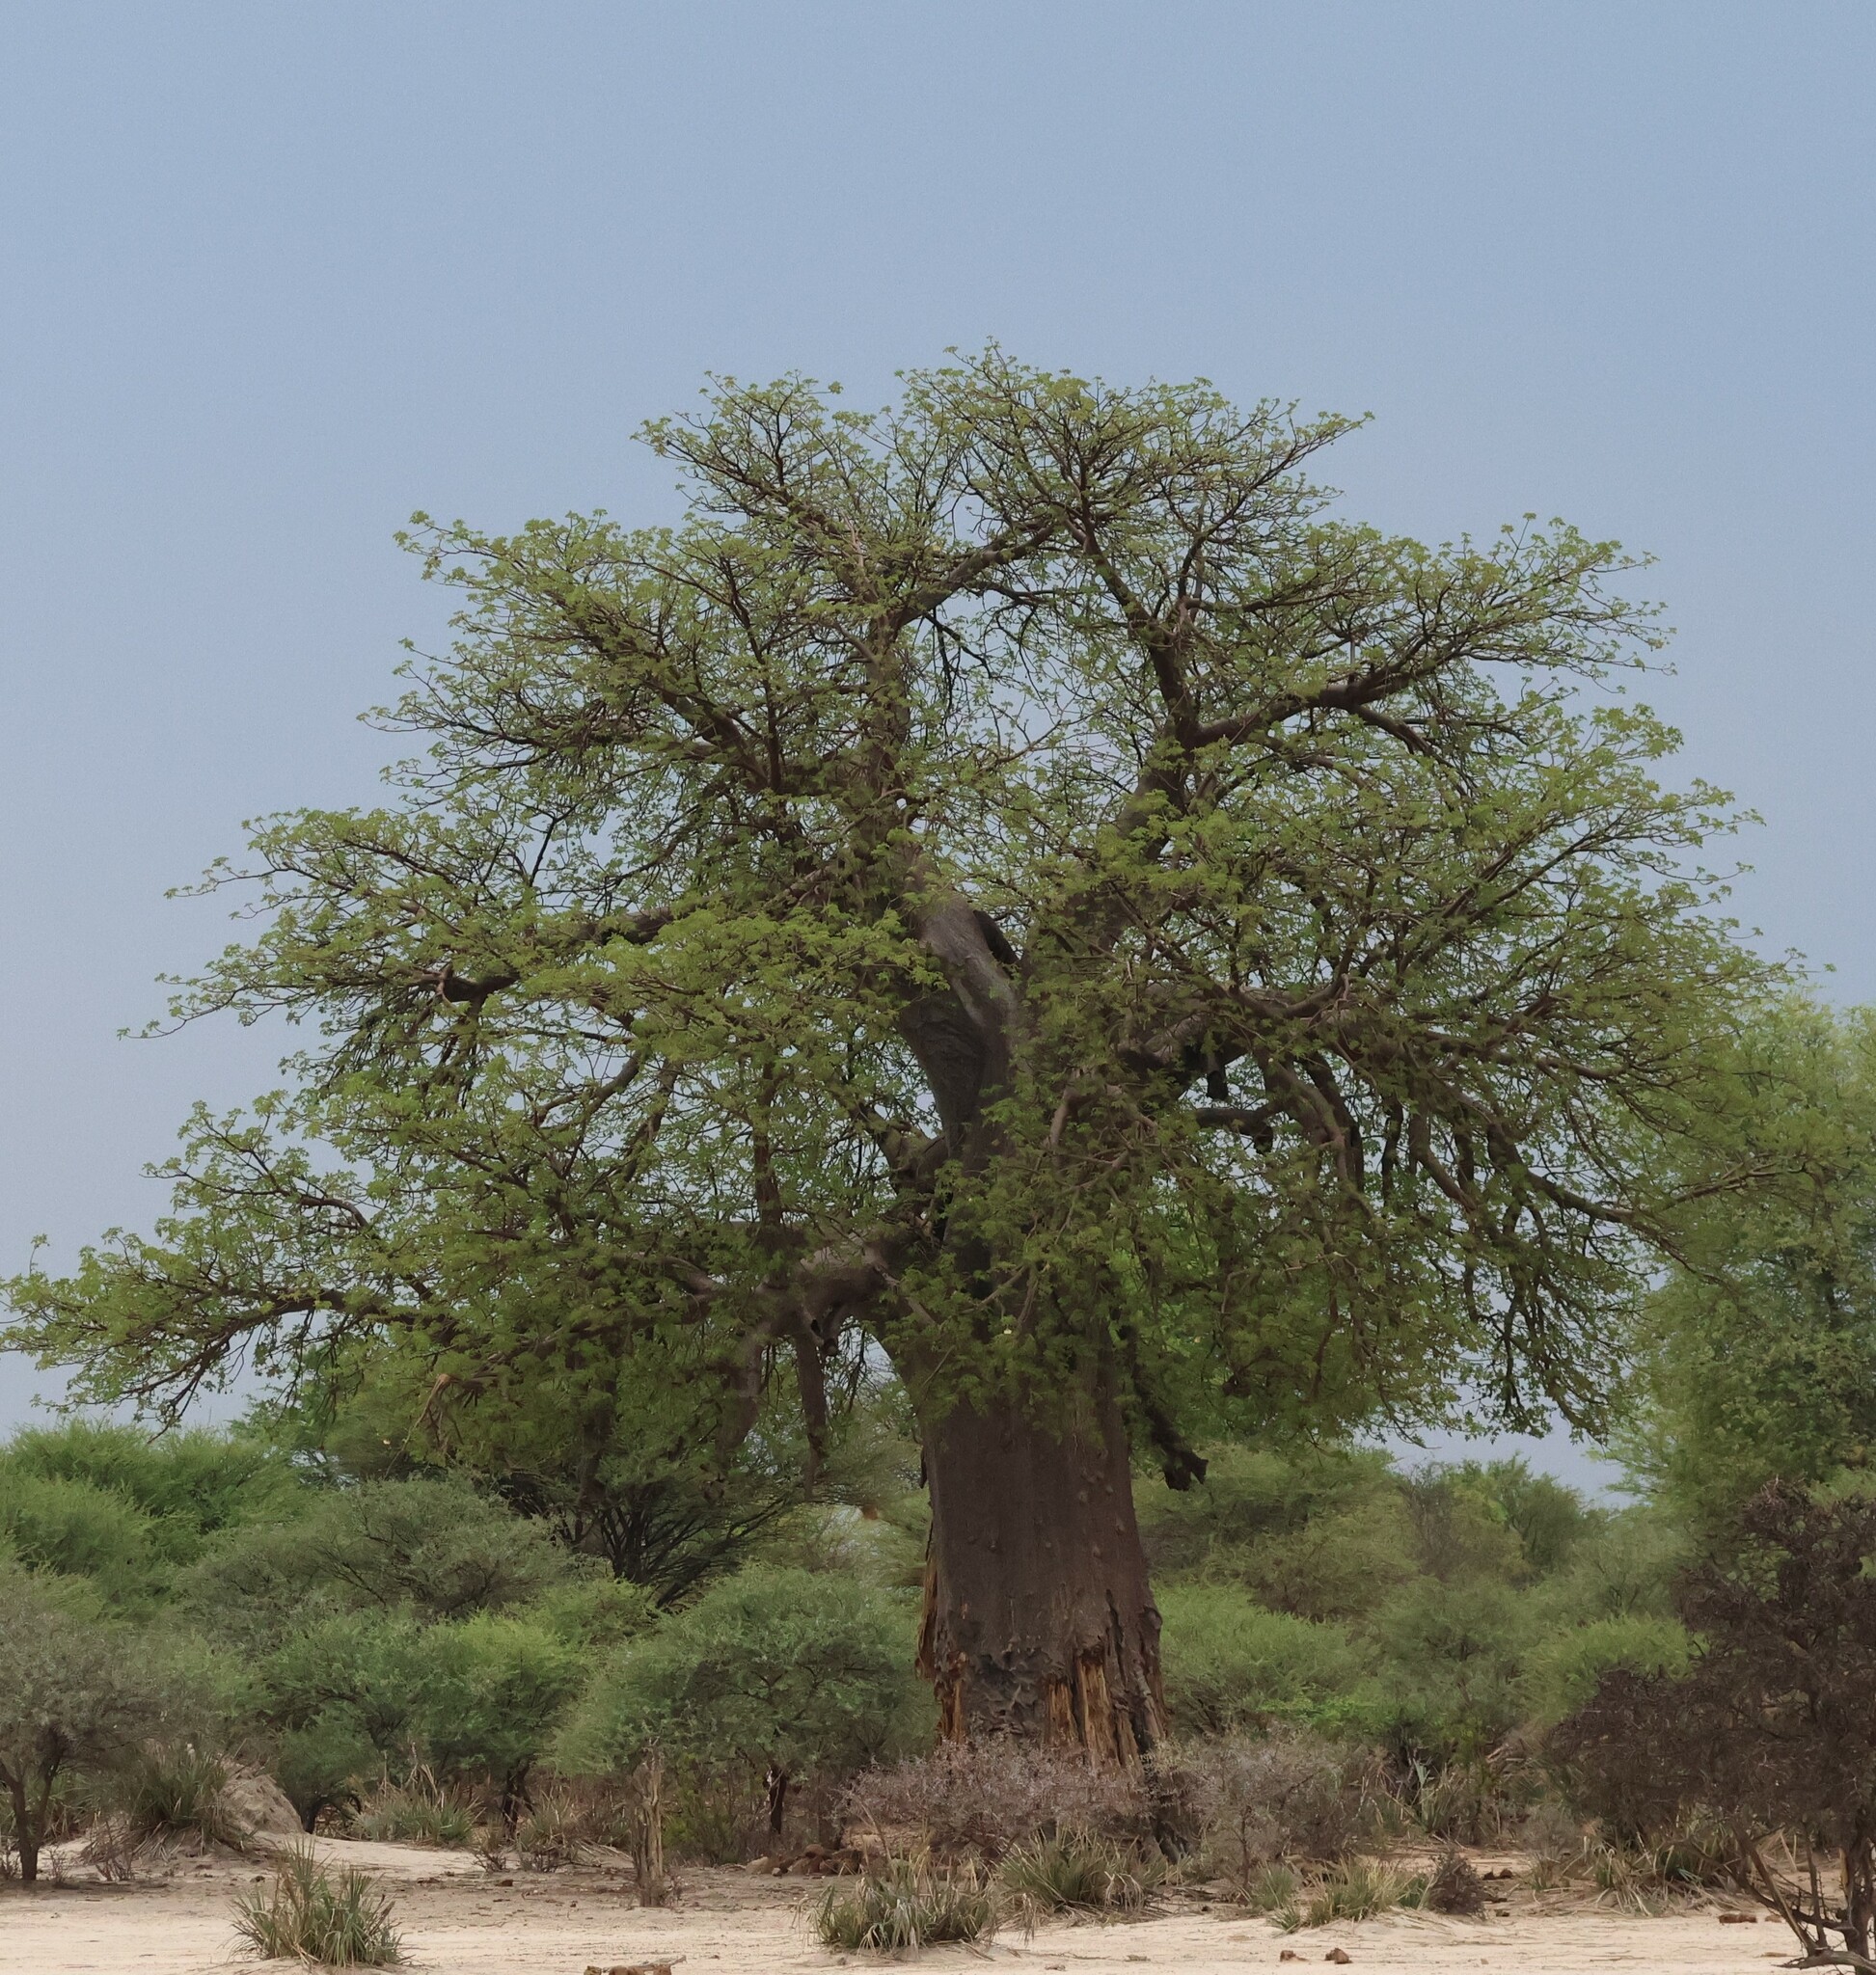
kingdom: Plantae
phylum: Tracheophyta
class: Magnoliopsida
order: Malvales
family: Malvaceae
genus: Adansonia
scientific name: Adansonia digitata
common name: Dead-rat-tree
